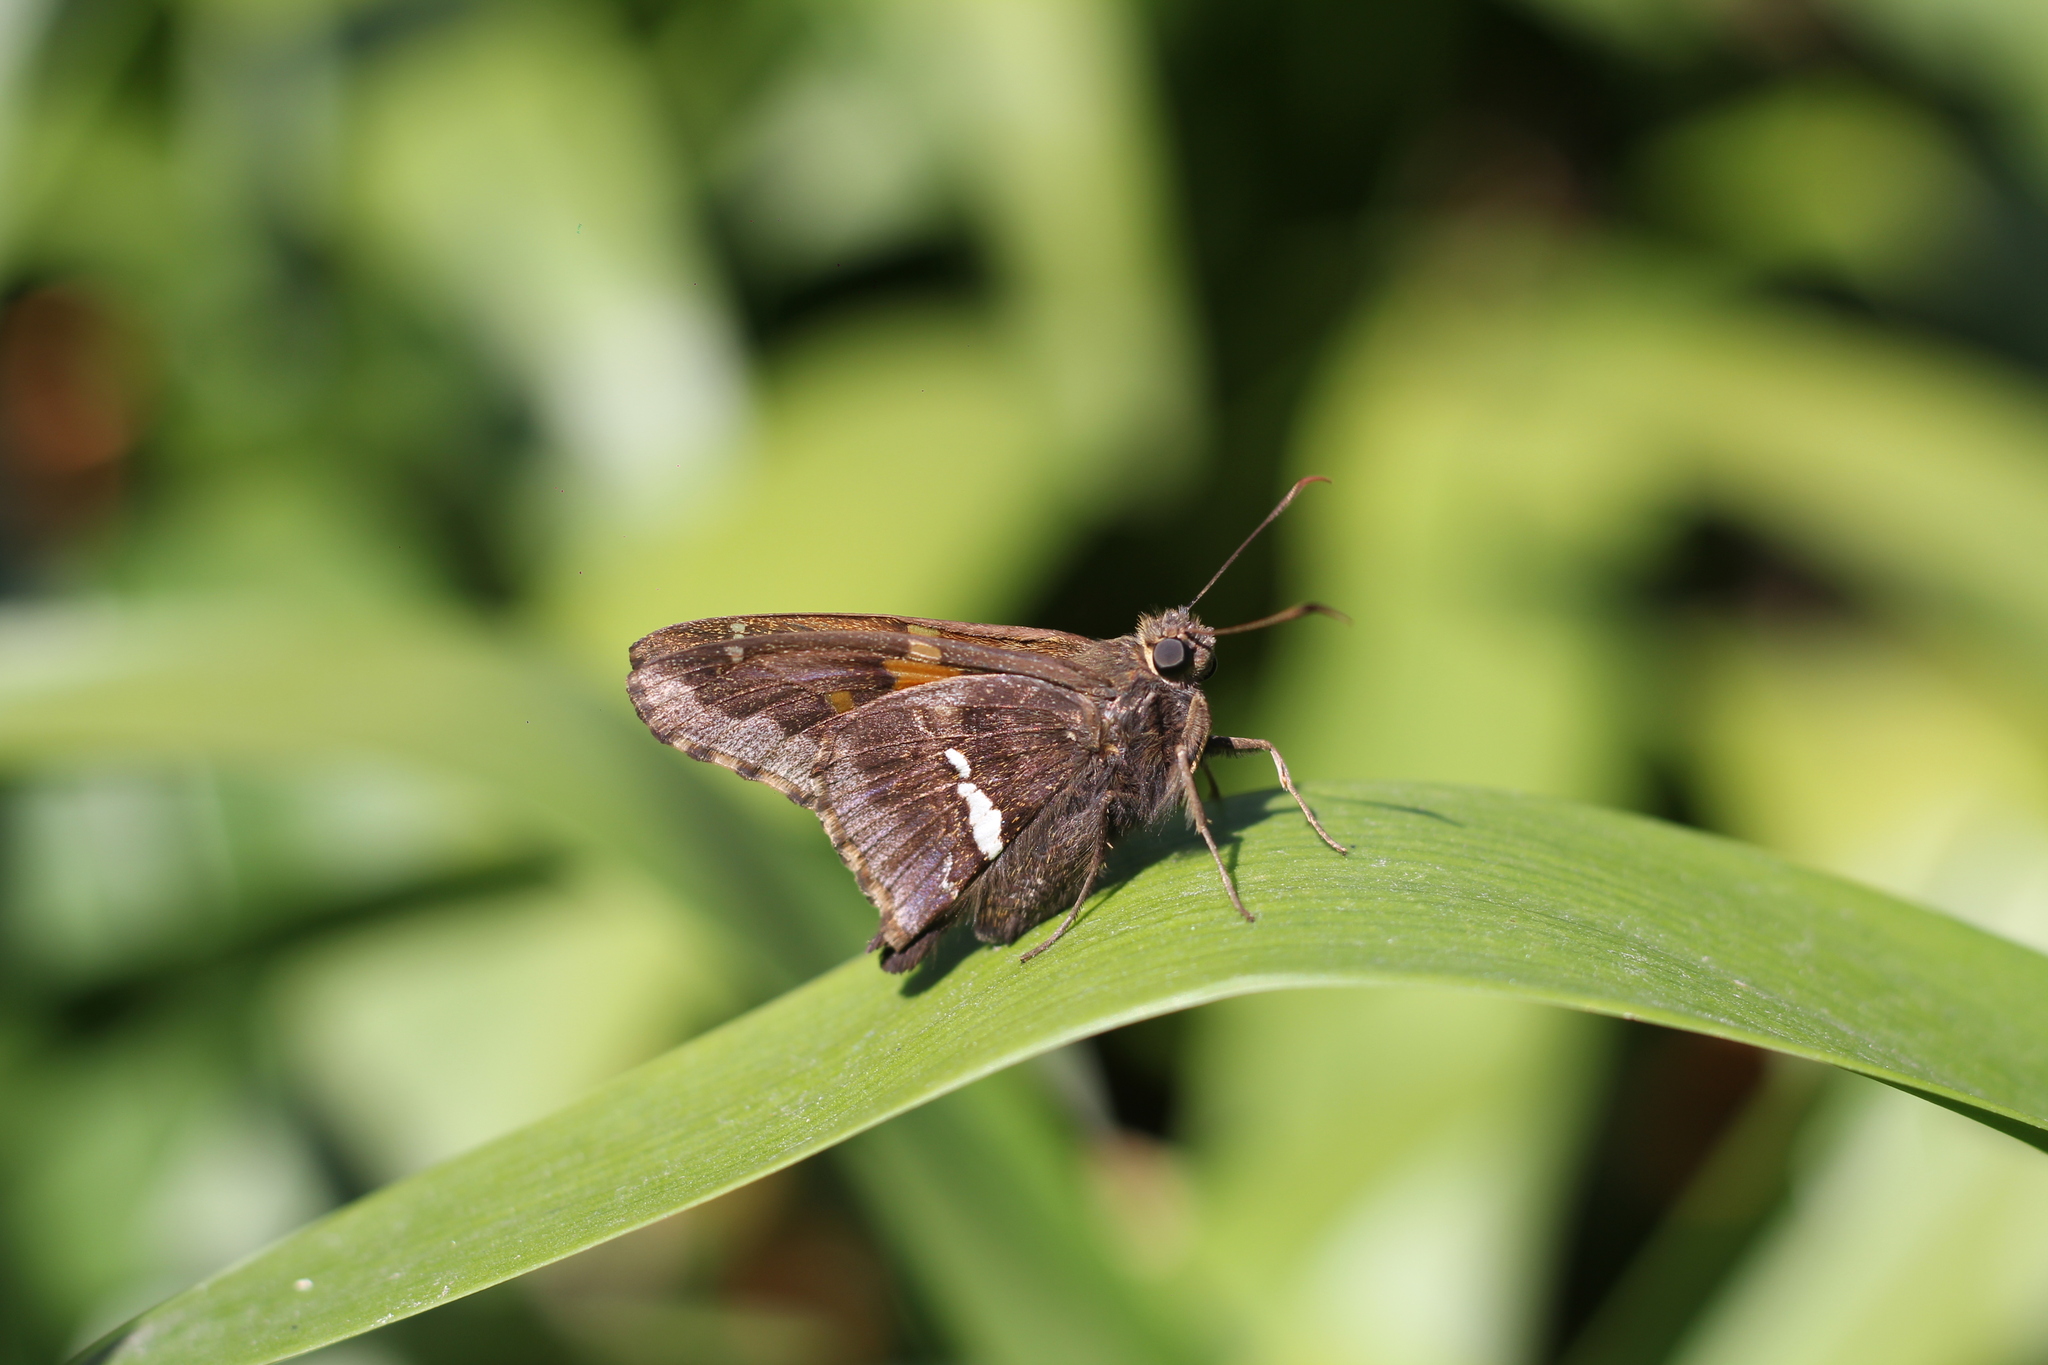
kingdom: Animalia
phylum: Arthropoda
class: Insecta
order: Lepidoptera
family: Hesperiidae
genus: Epargyreus
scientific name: Epargyreus tmolis
